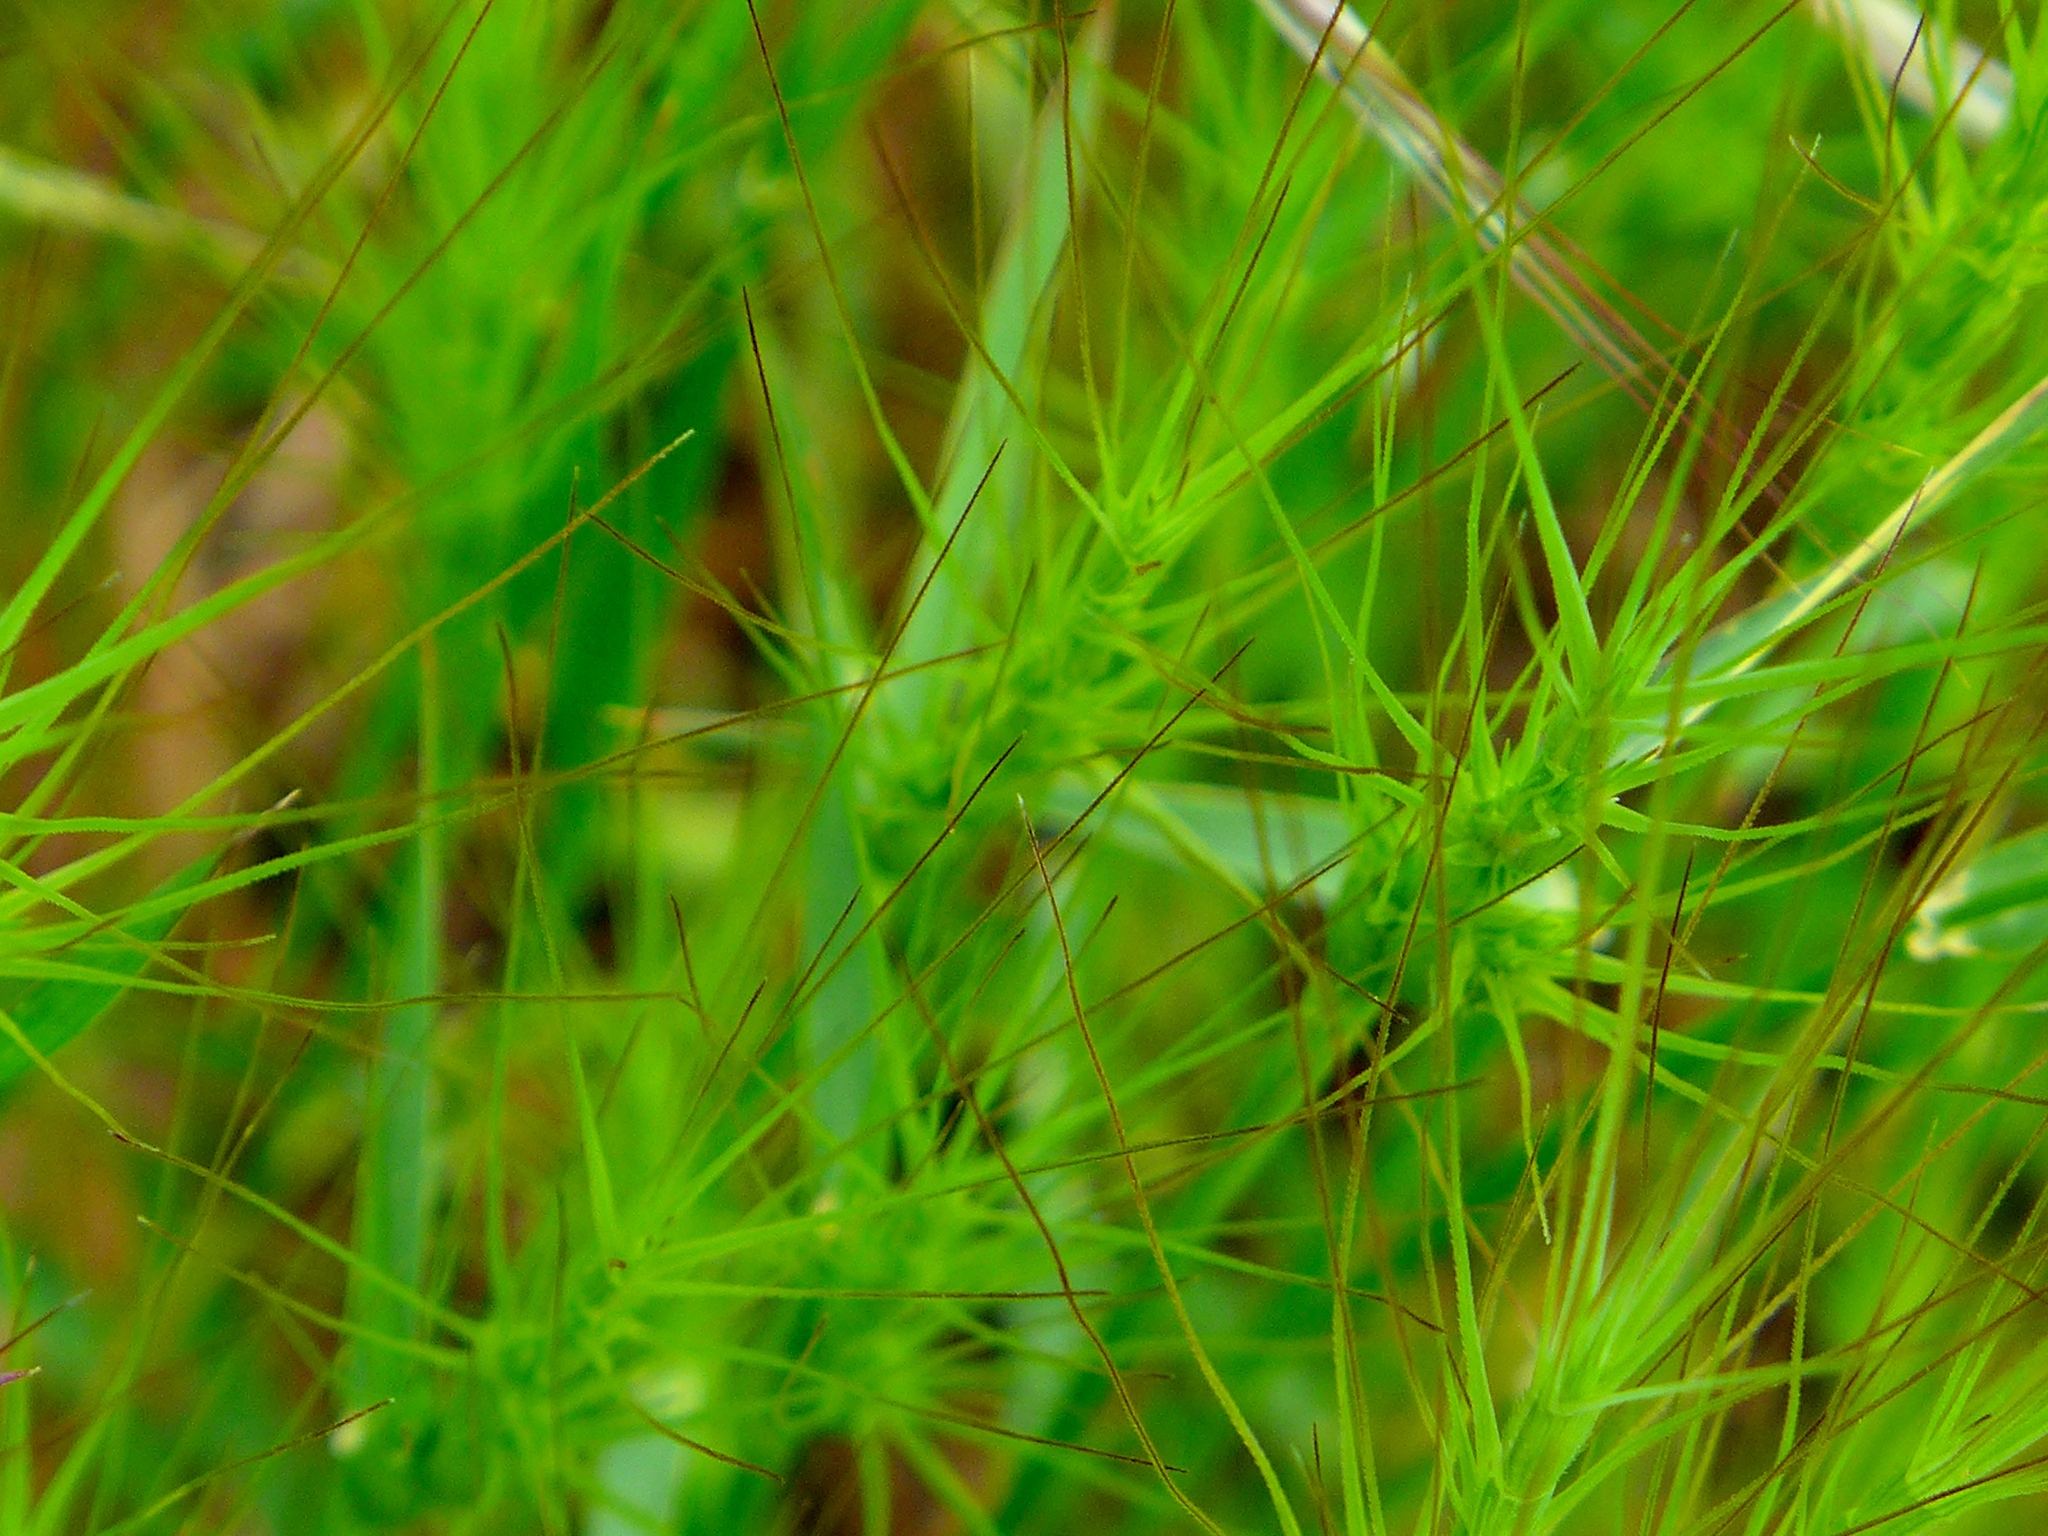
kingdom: Plantae
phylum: Tracheophyta
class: Liliopsida
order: Poales
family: Poaceae
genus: Aegilops
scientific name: Aegilops triuncialis
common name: Barb goat grass
